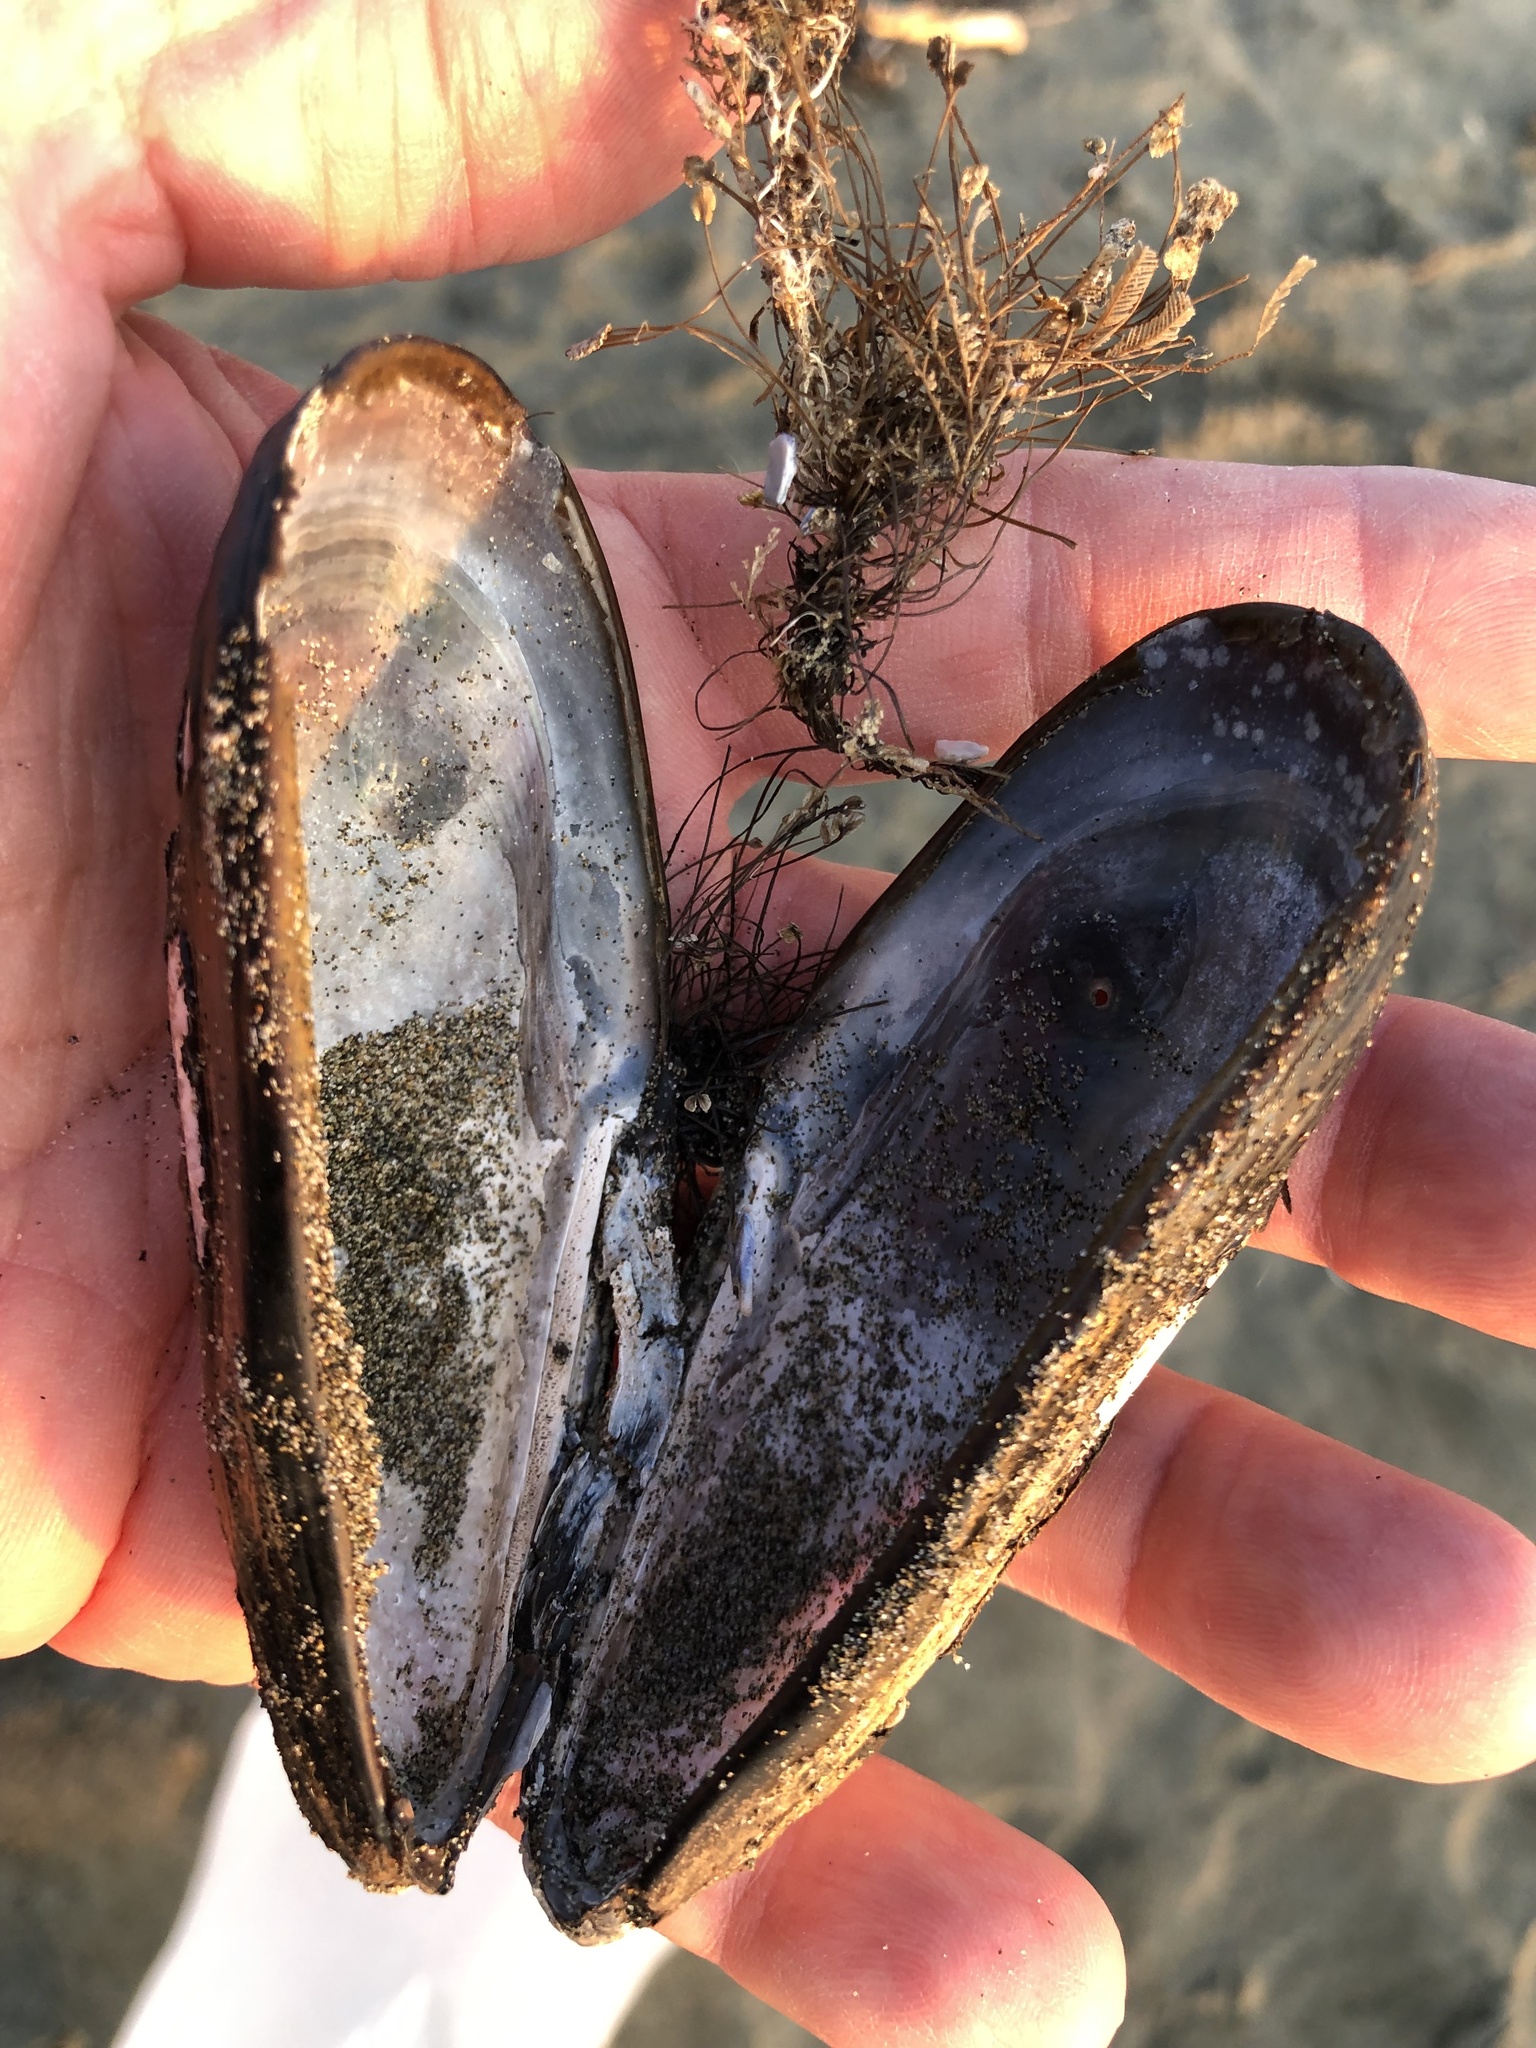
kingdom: Animalia
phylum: Mollusca
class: Bivalvia
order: Mytilida
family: Mytilidae
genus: Mytilus
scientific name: Mytilus californianus
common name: California mussel
